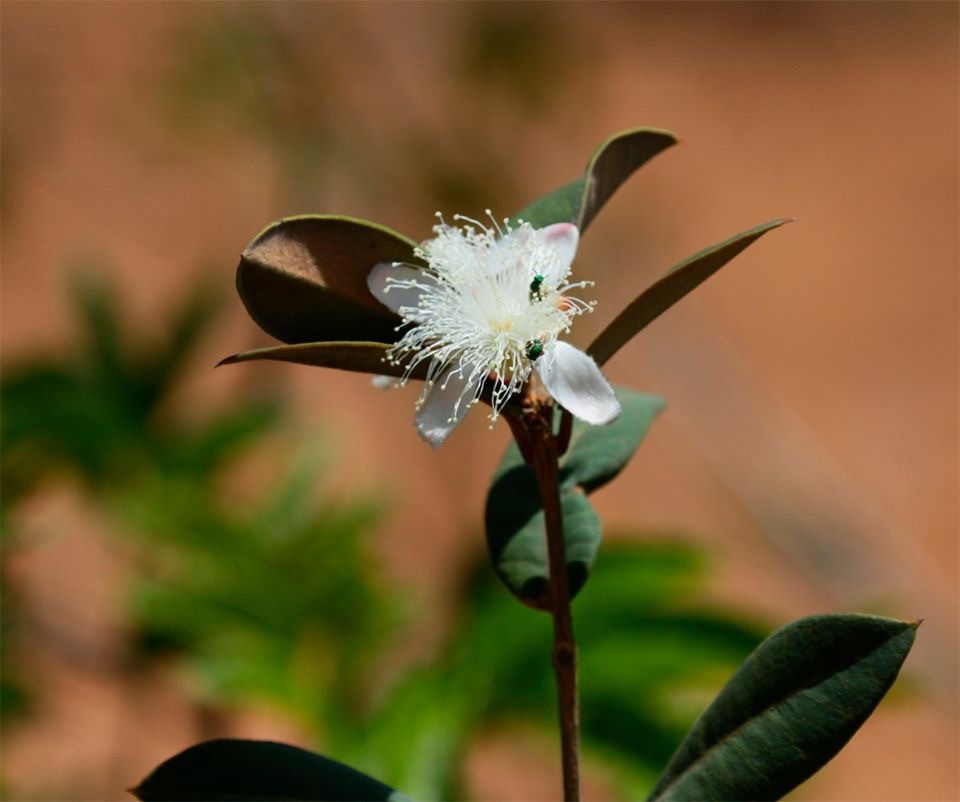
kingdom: Plantae
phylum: Tracheophyta
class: Magnoliopsida
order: Myrtales
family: Myrtaceae
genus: Psidium
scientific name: Psidium guajava
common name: Guava
